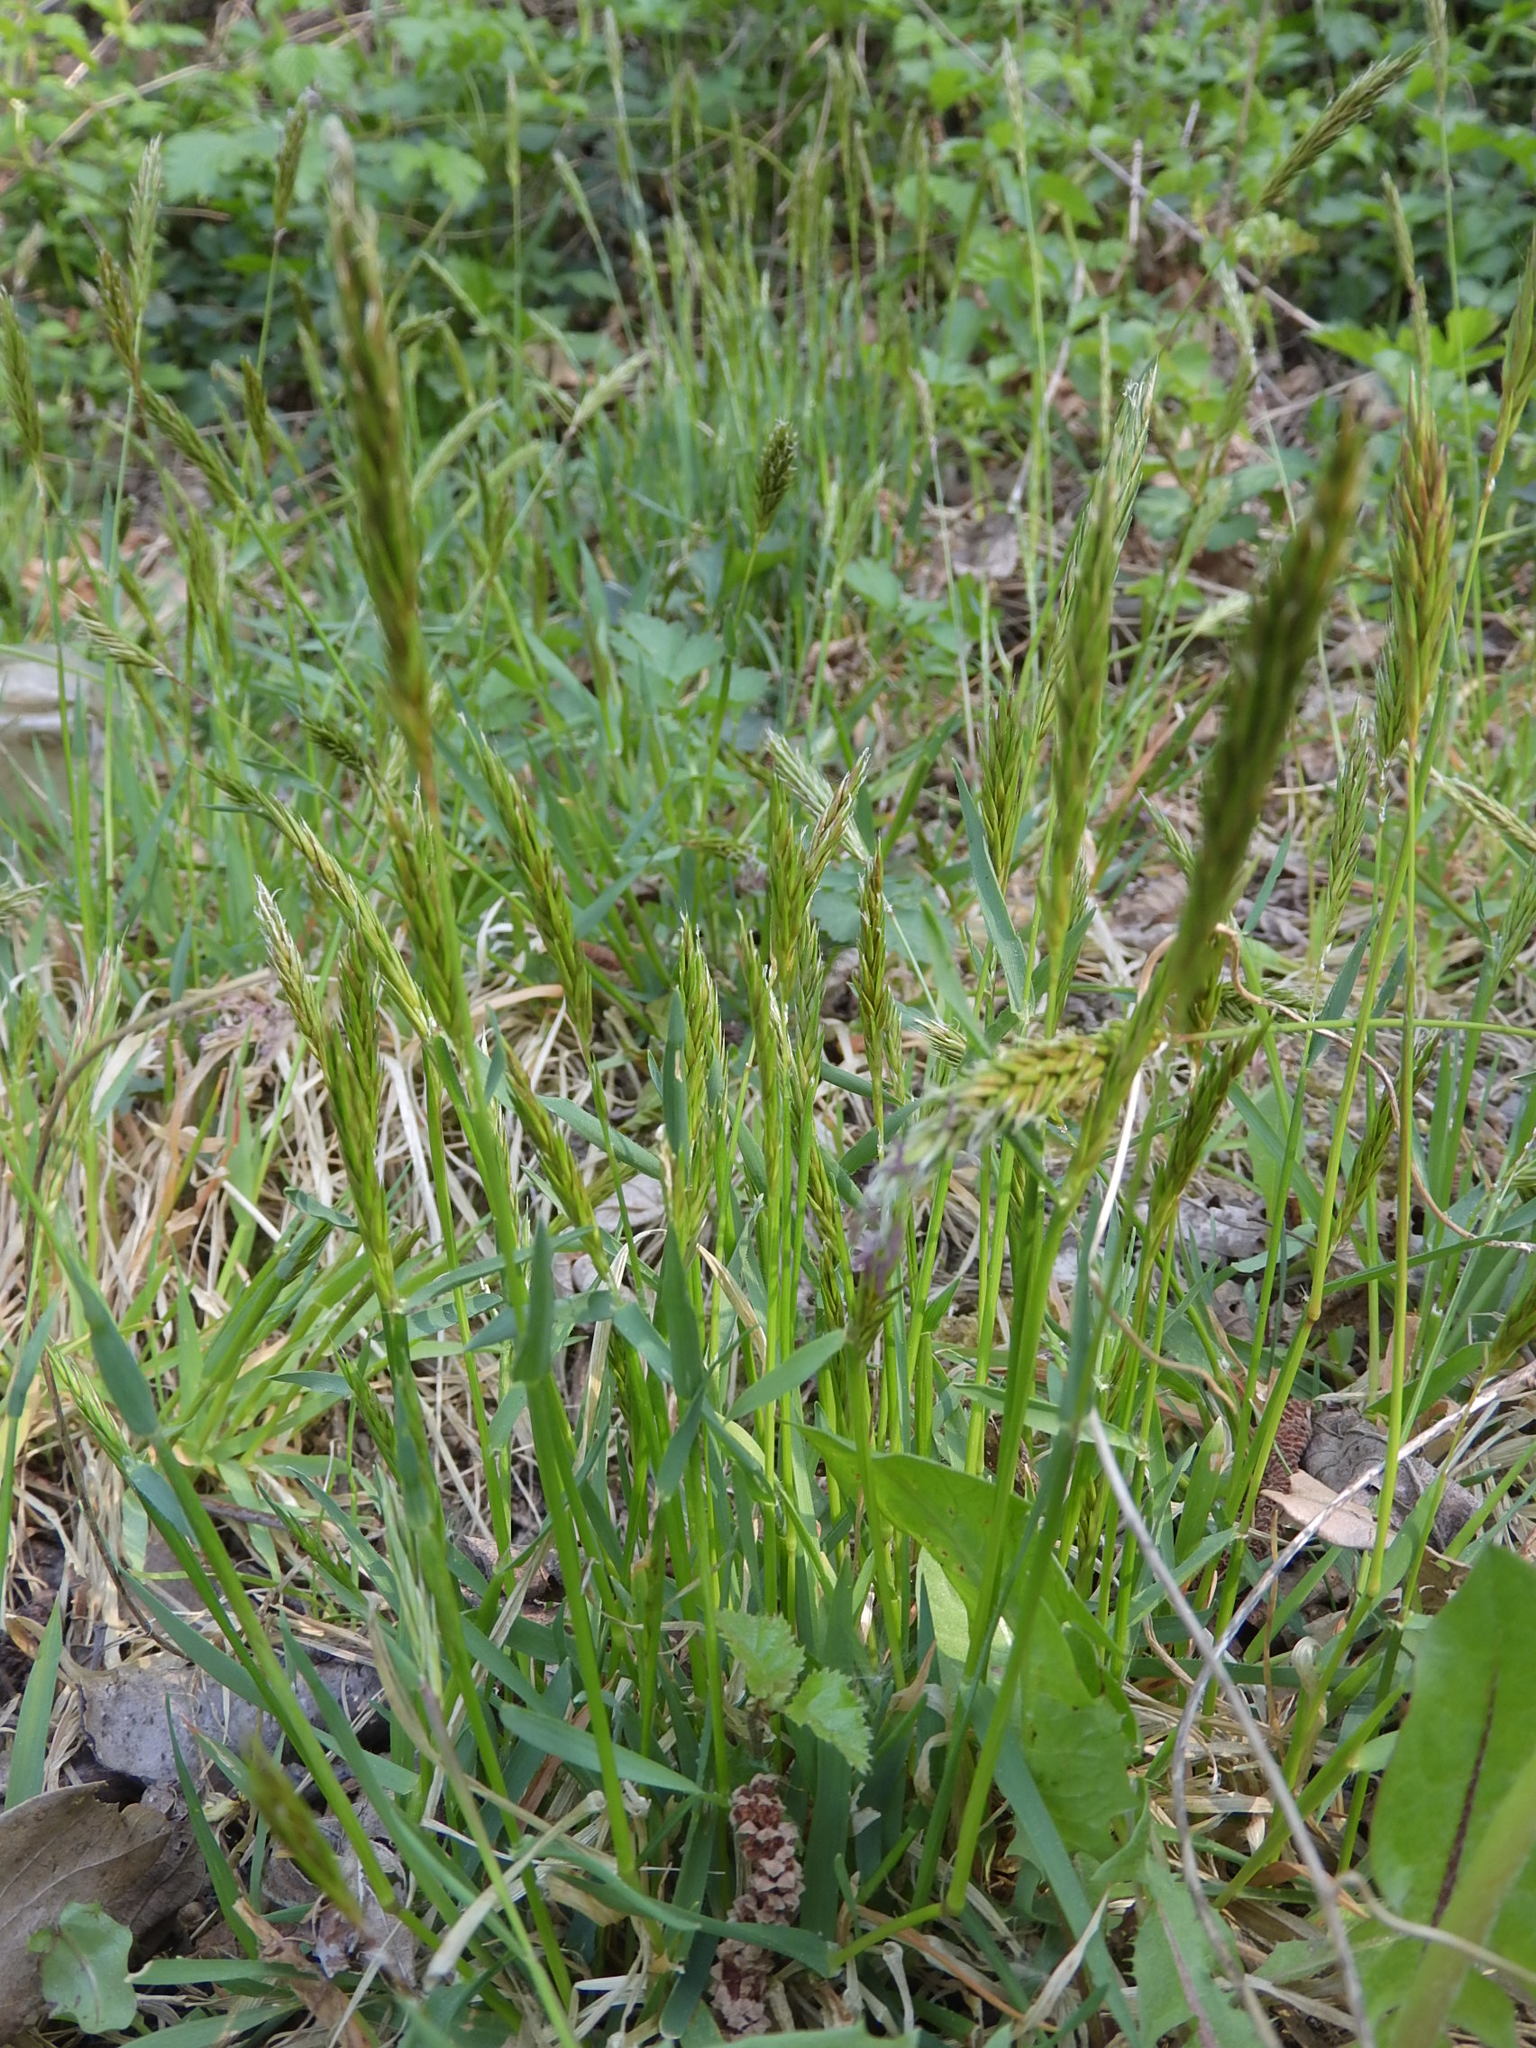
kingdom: Plantae
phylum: Tracheophyta
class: Liliopsida
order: Poales
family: Poaceae
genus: Anthoxanthum
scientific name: Anthoxanthum odoratum
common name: Sweet vernalgrass
